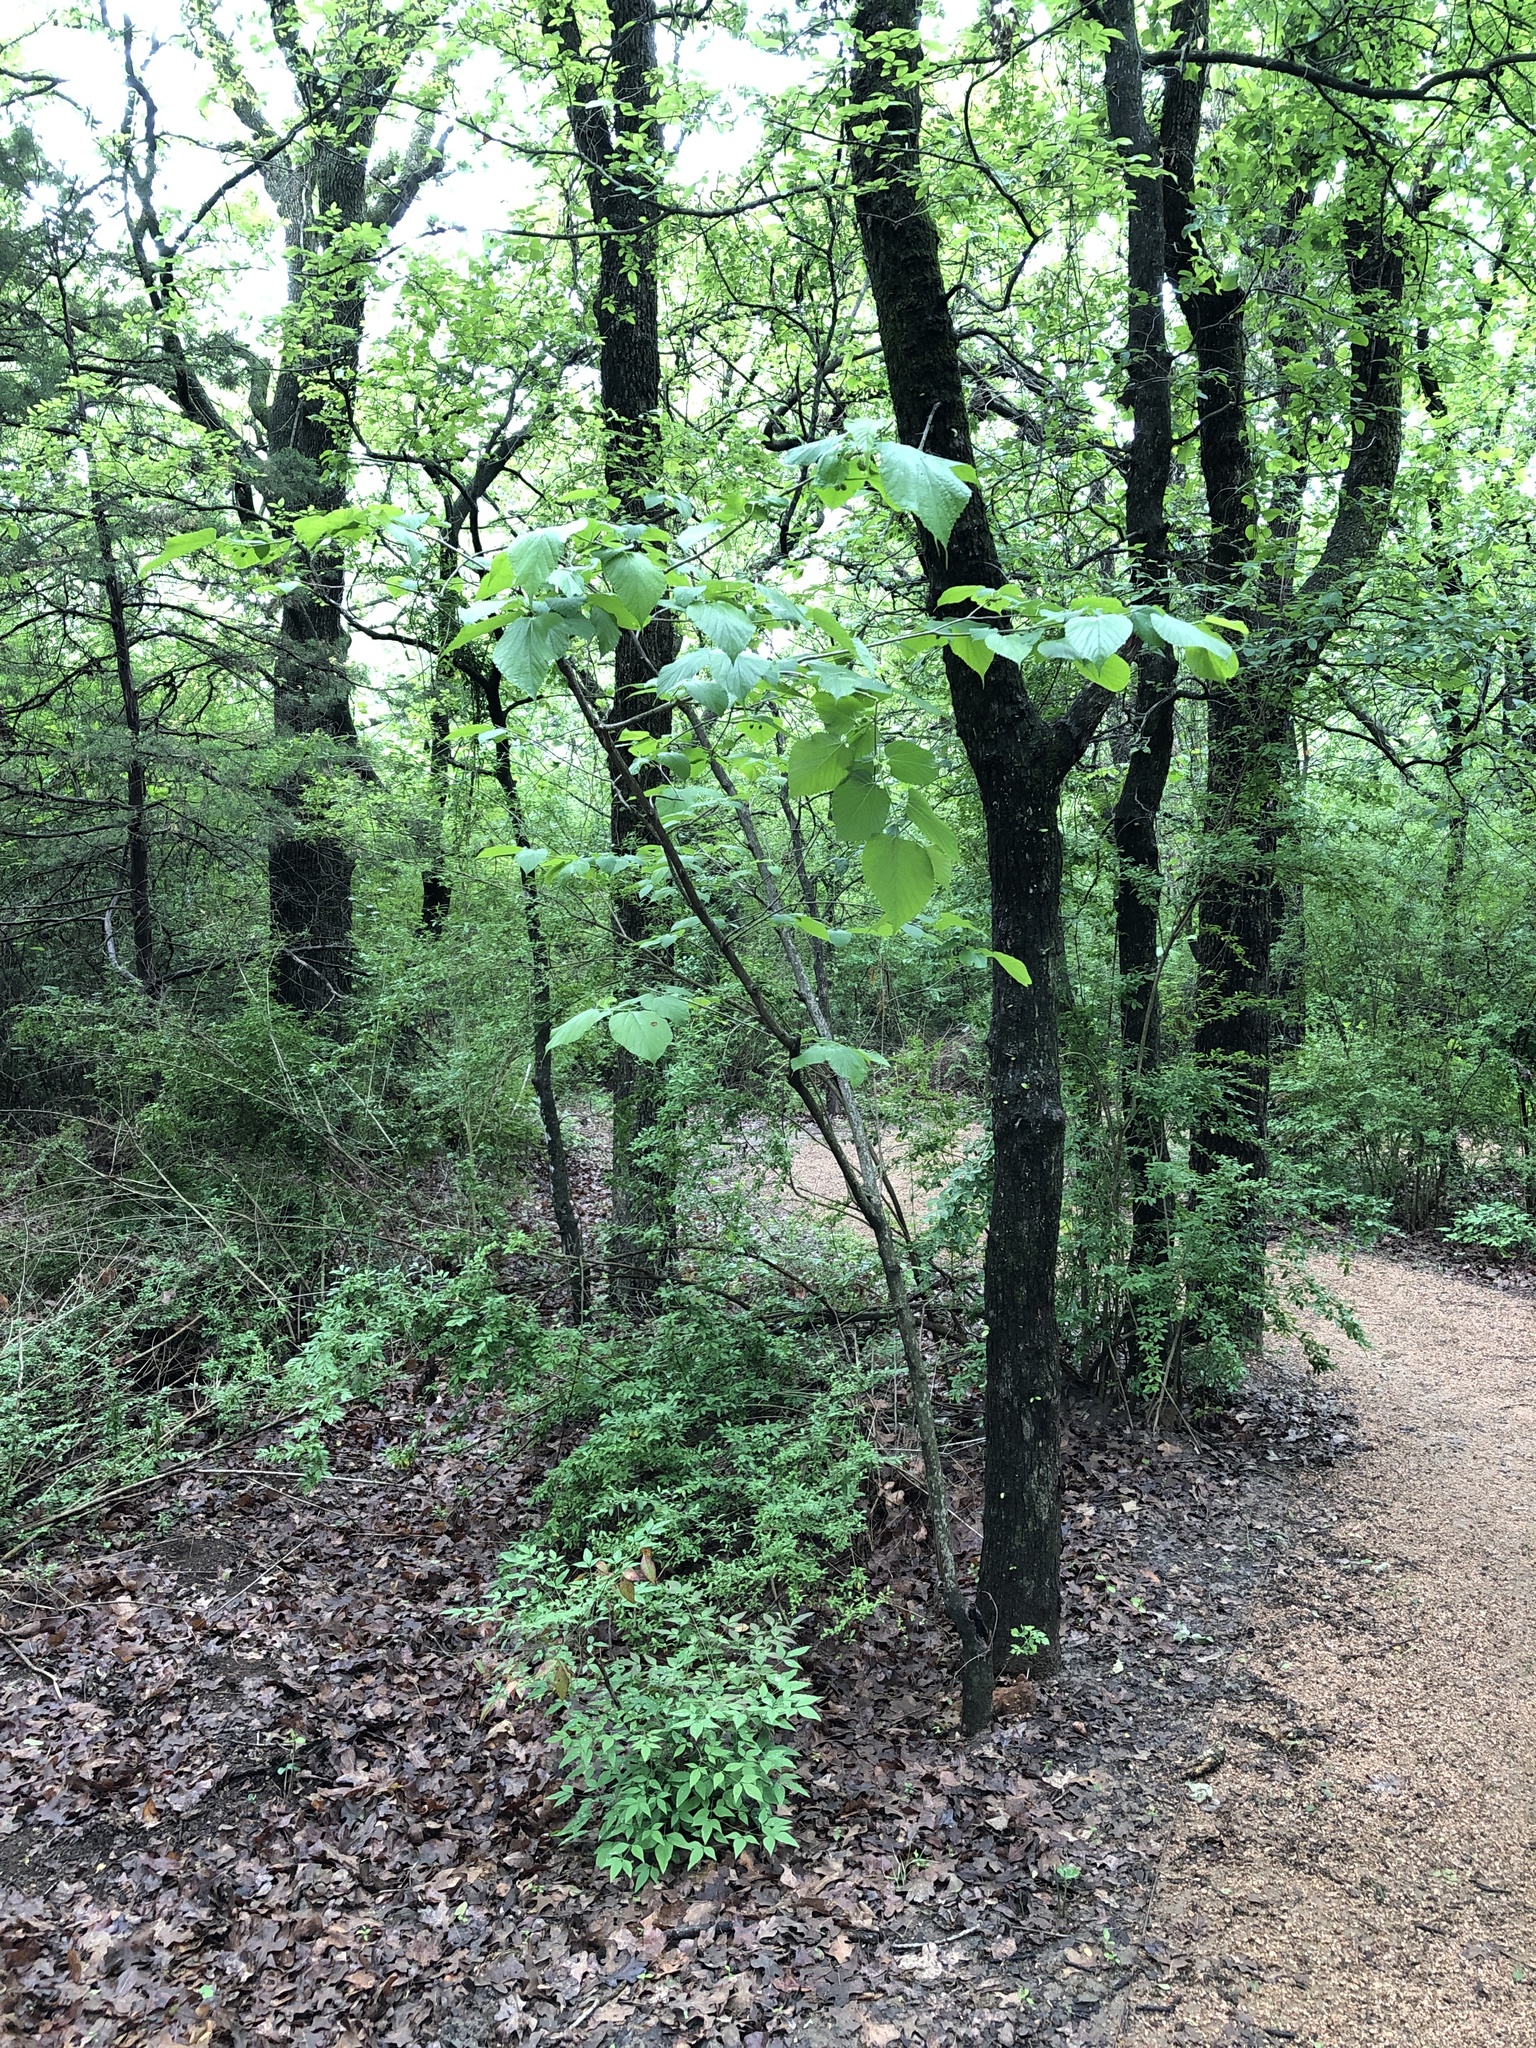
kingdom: Plantae
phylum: Tracheophyta
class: Magnoliopsida
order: Rosales
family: Moraceae
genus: Morus
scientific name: Morus rubra
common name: Red mulberry
